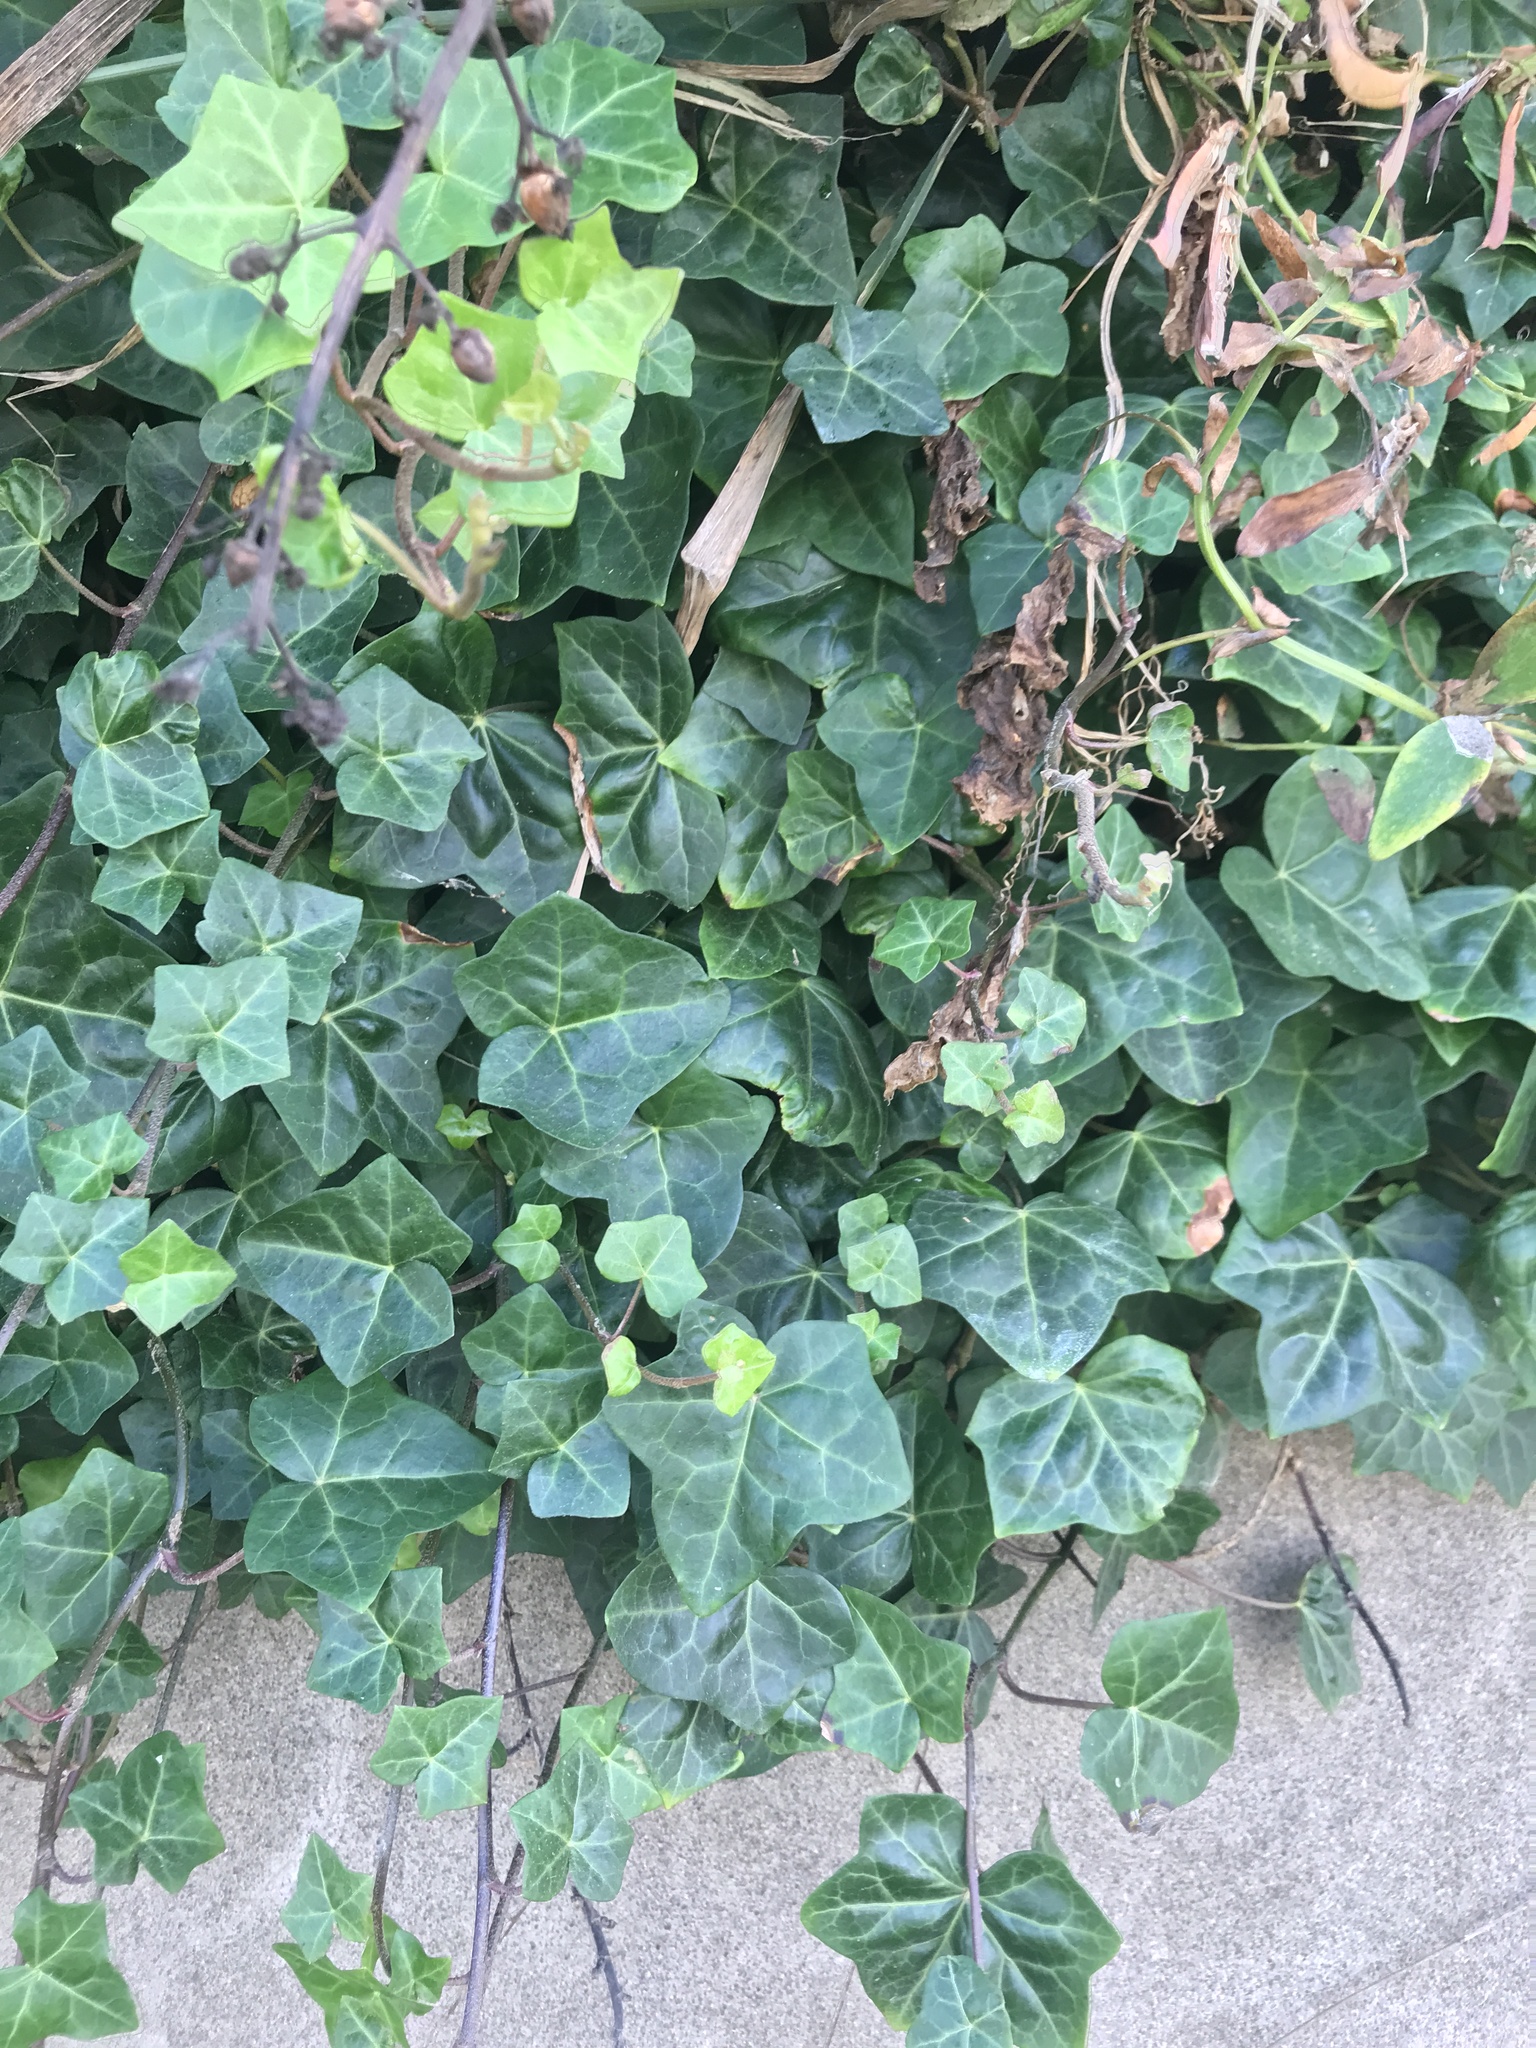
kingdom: Plantae
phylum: Tracheophyta
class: Magnoliopsida
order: Apiales
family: Araliaceae
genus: Hedera
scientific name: Hedera hibernica
